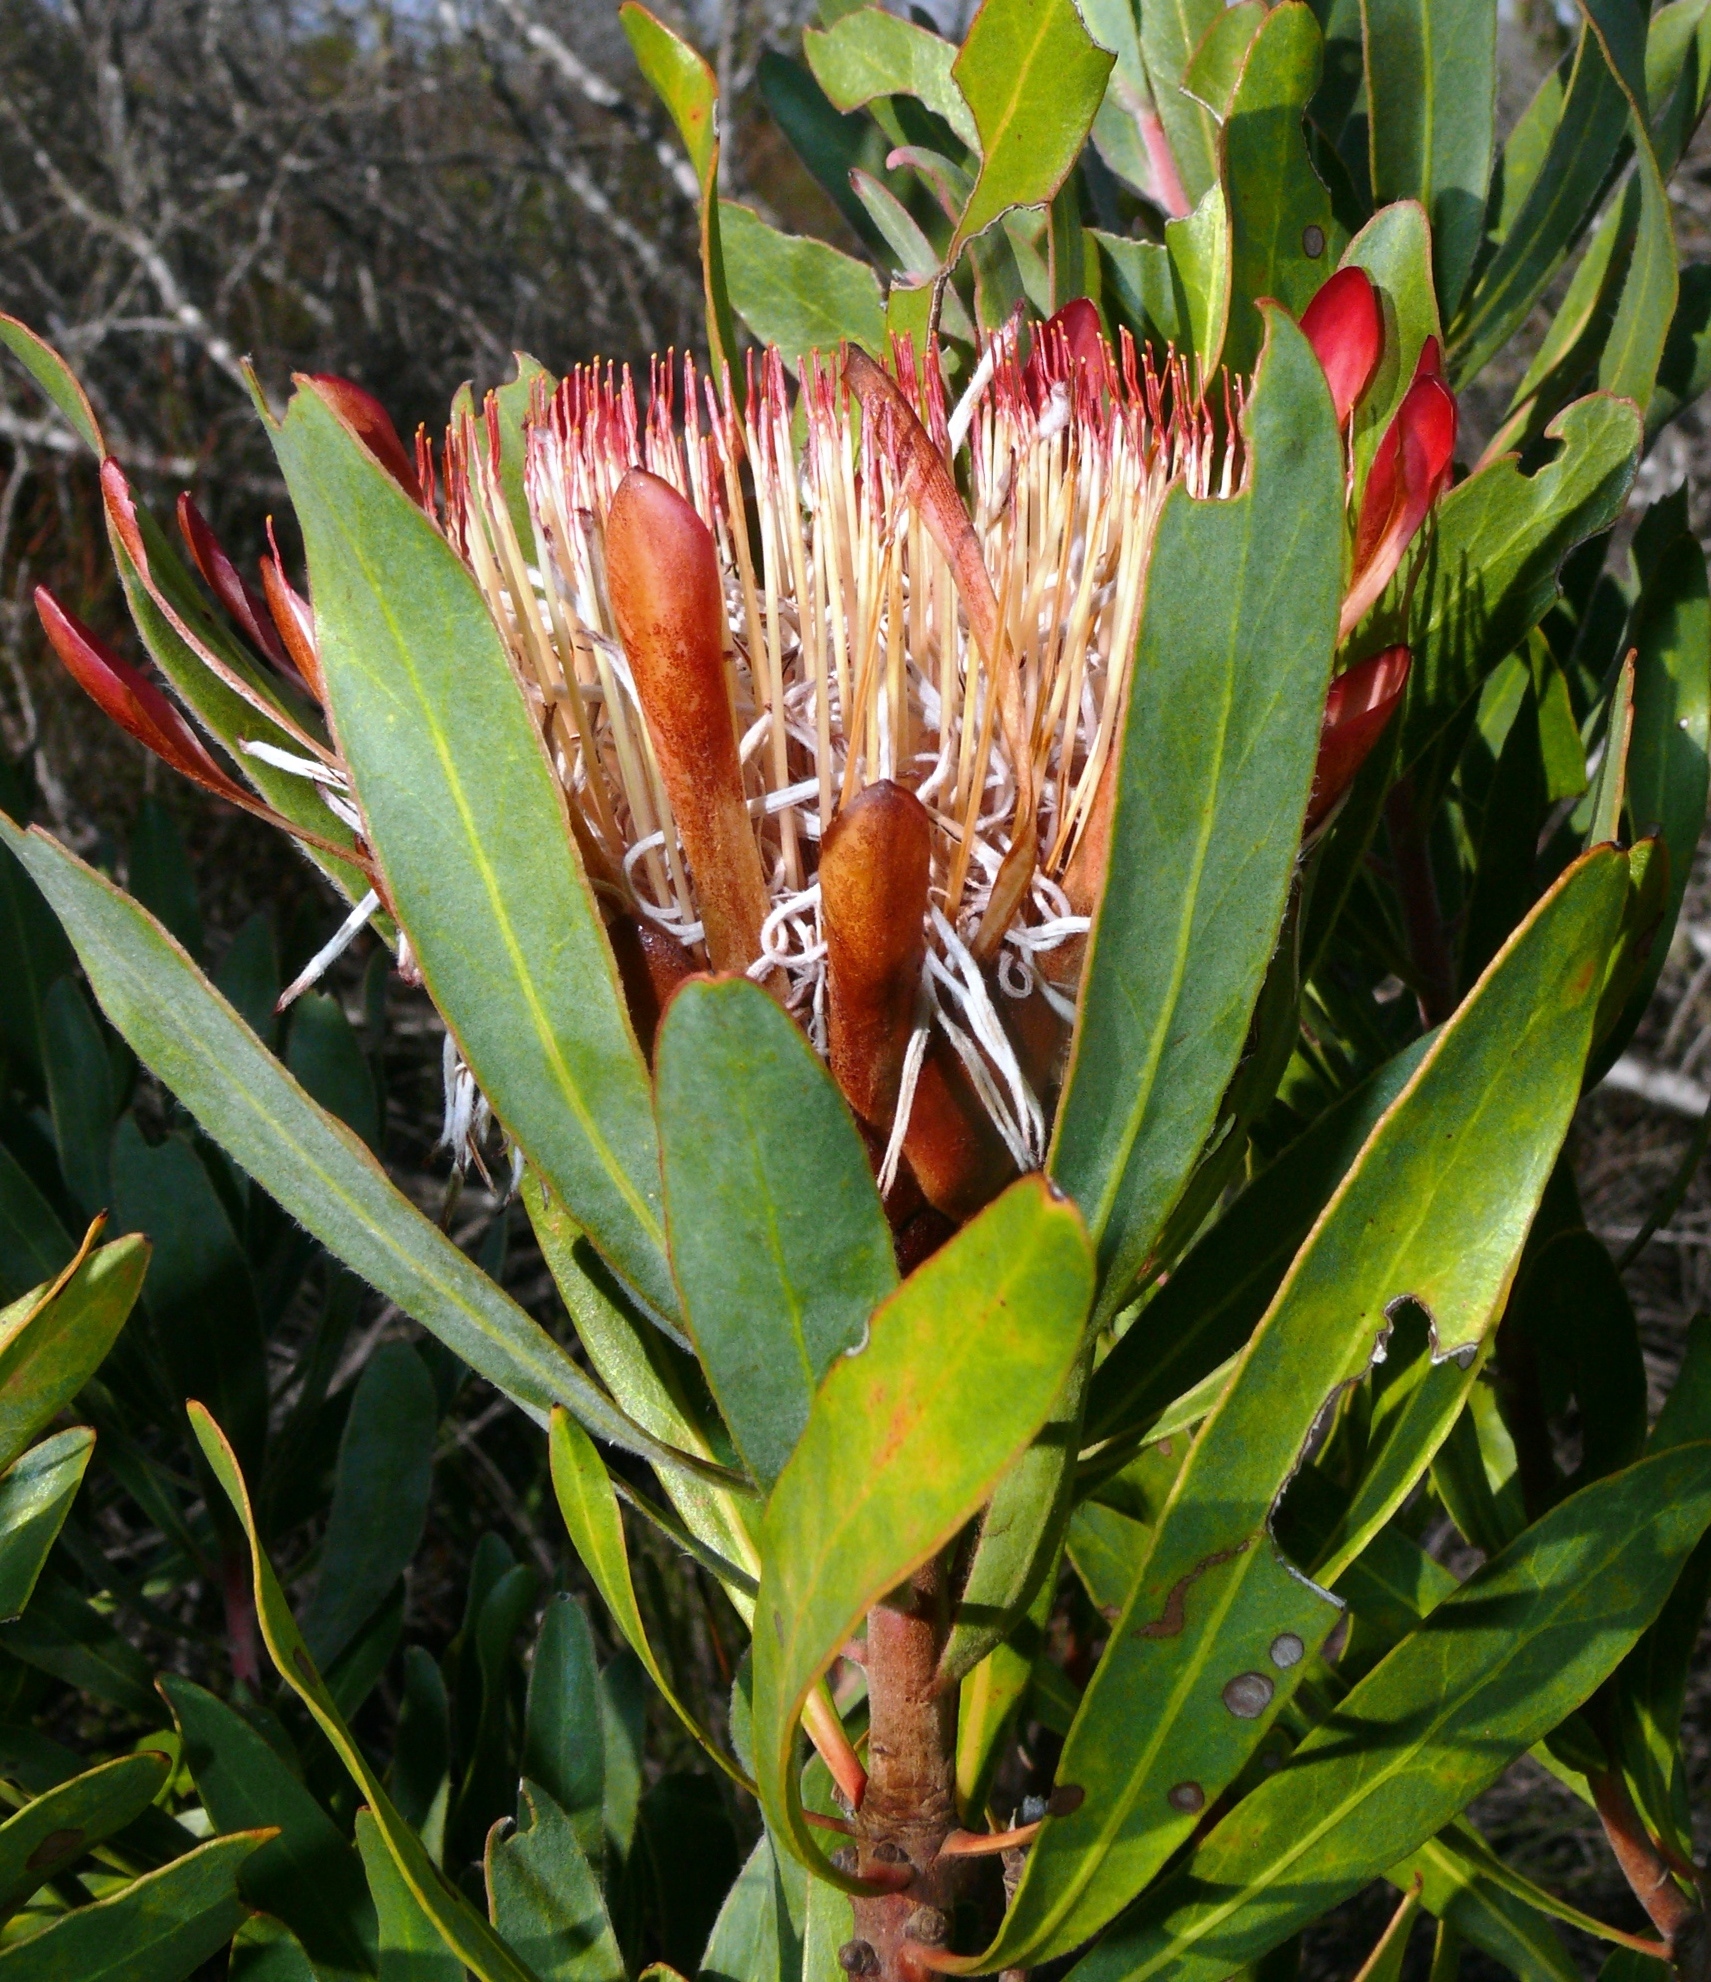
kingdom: Plantae
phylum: Tracheophyta
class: Magnoliopsida
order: Proteales
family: Proteaceae
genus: Protea
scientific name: Protea susannae
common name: Foetid-leaf sugarbush
